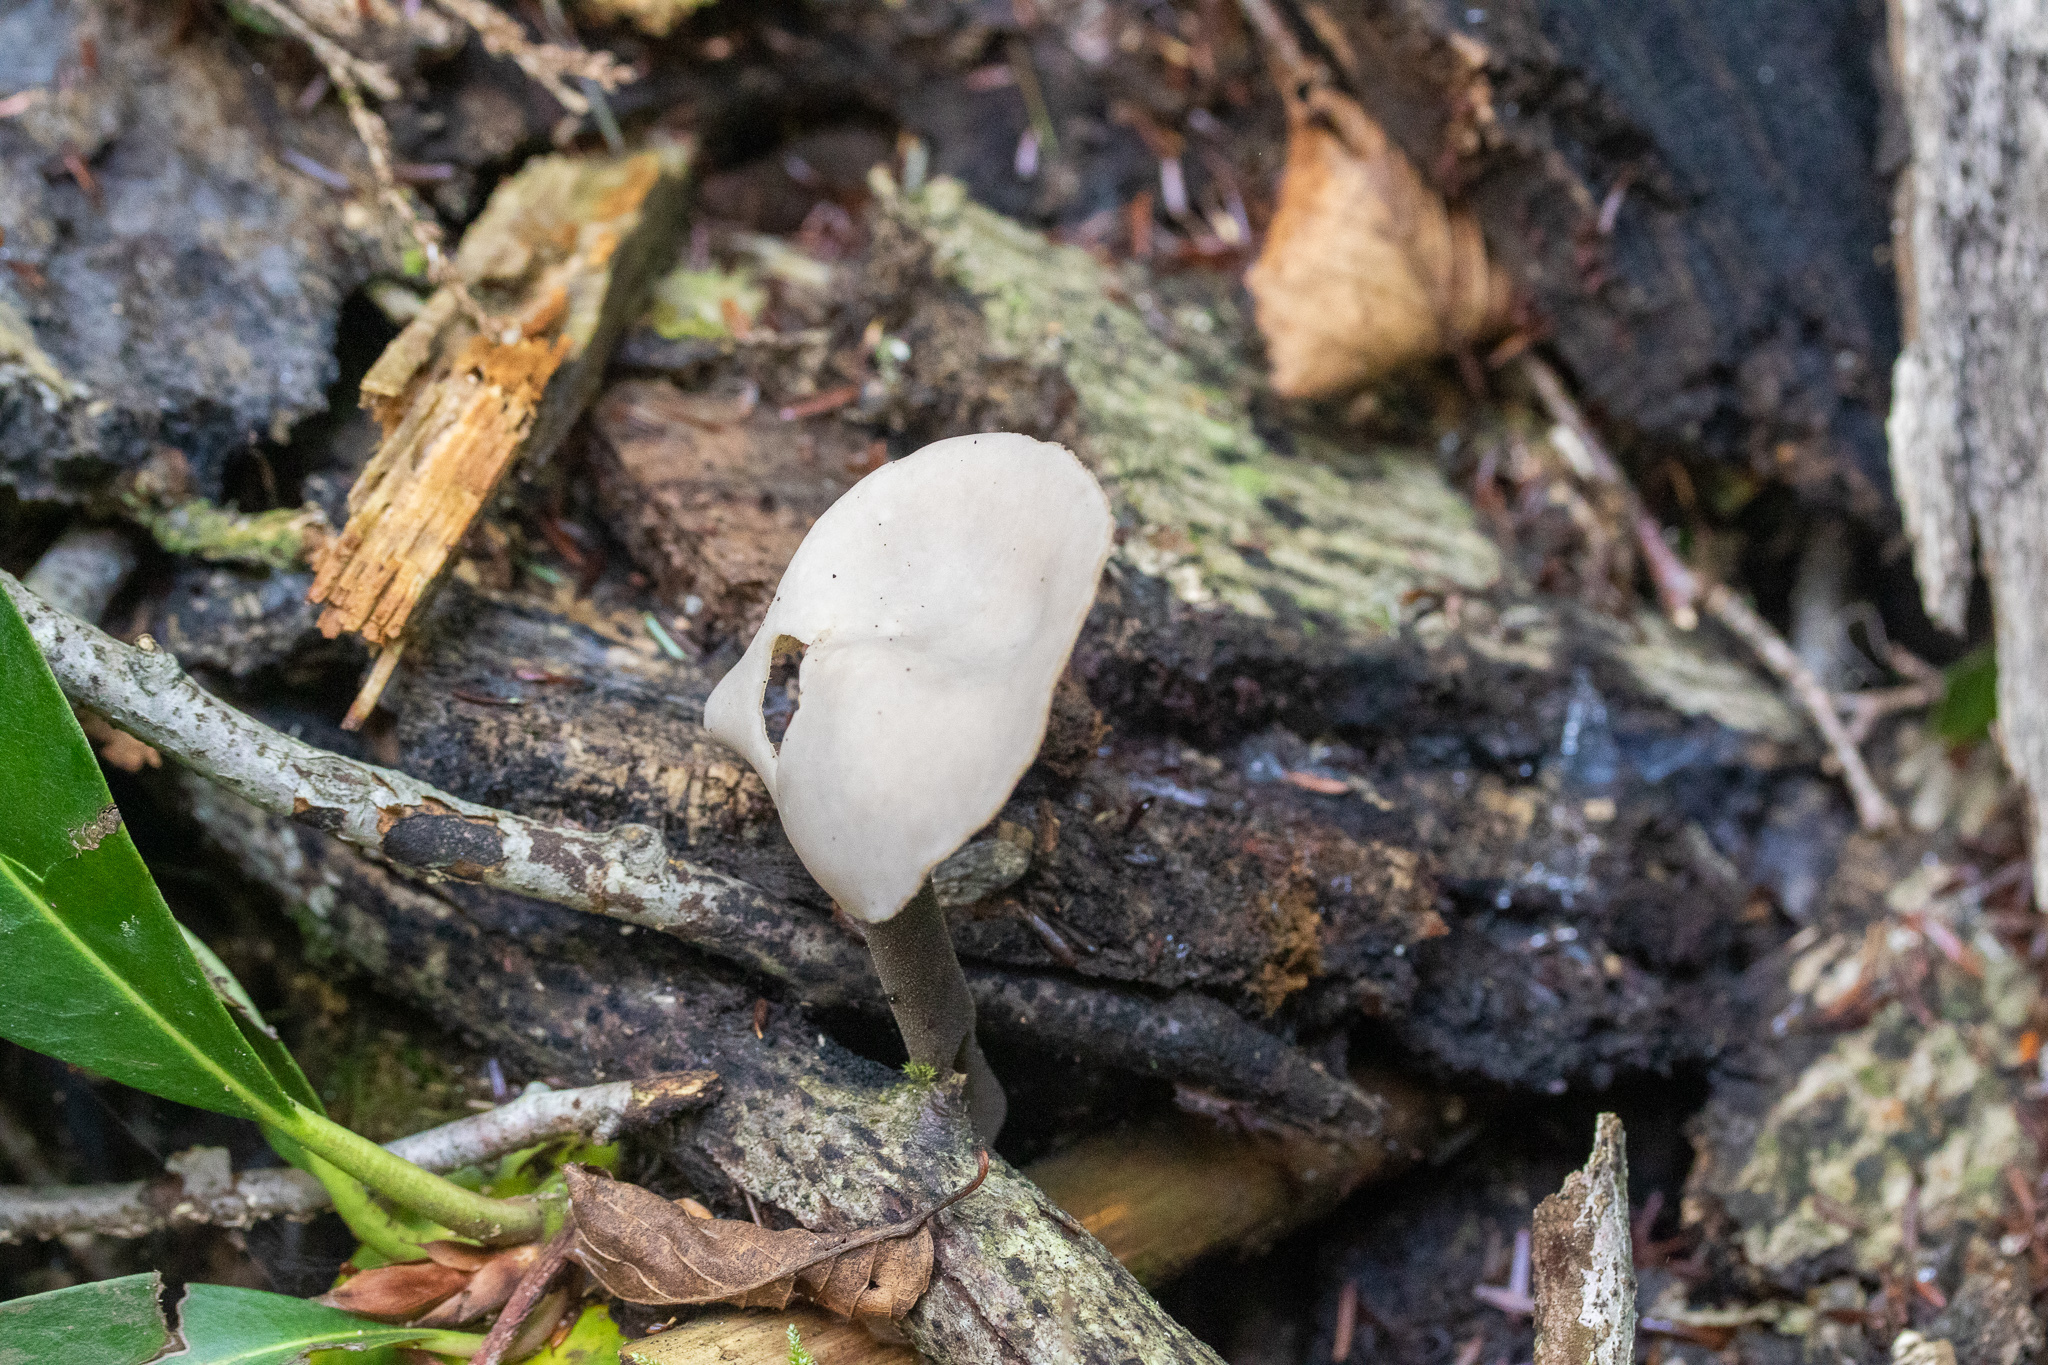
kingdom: Fungi
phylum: Ascomycota
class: Pezizomycetes
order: Pezizales
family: Helvellaceae
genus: Helvella
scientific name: Helvella atra
